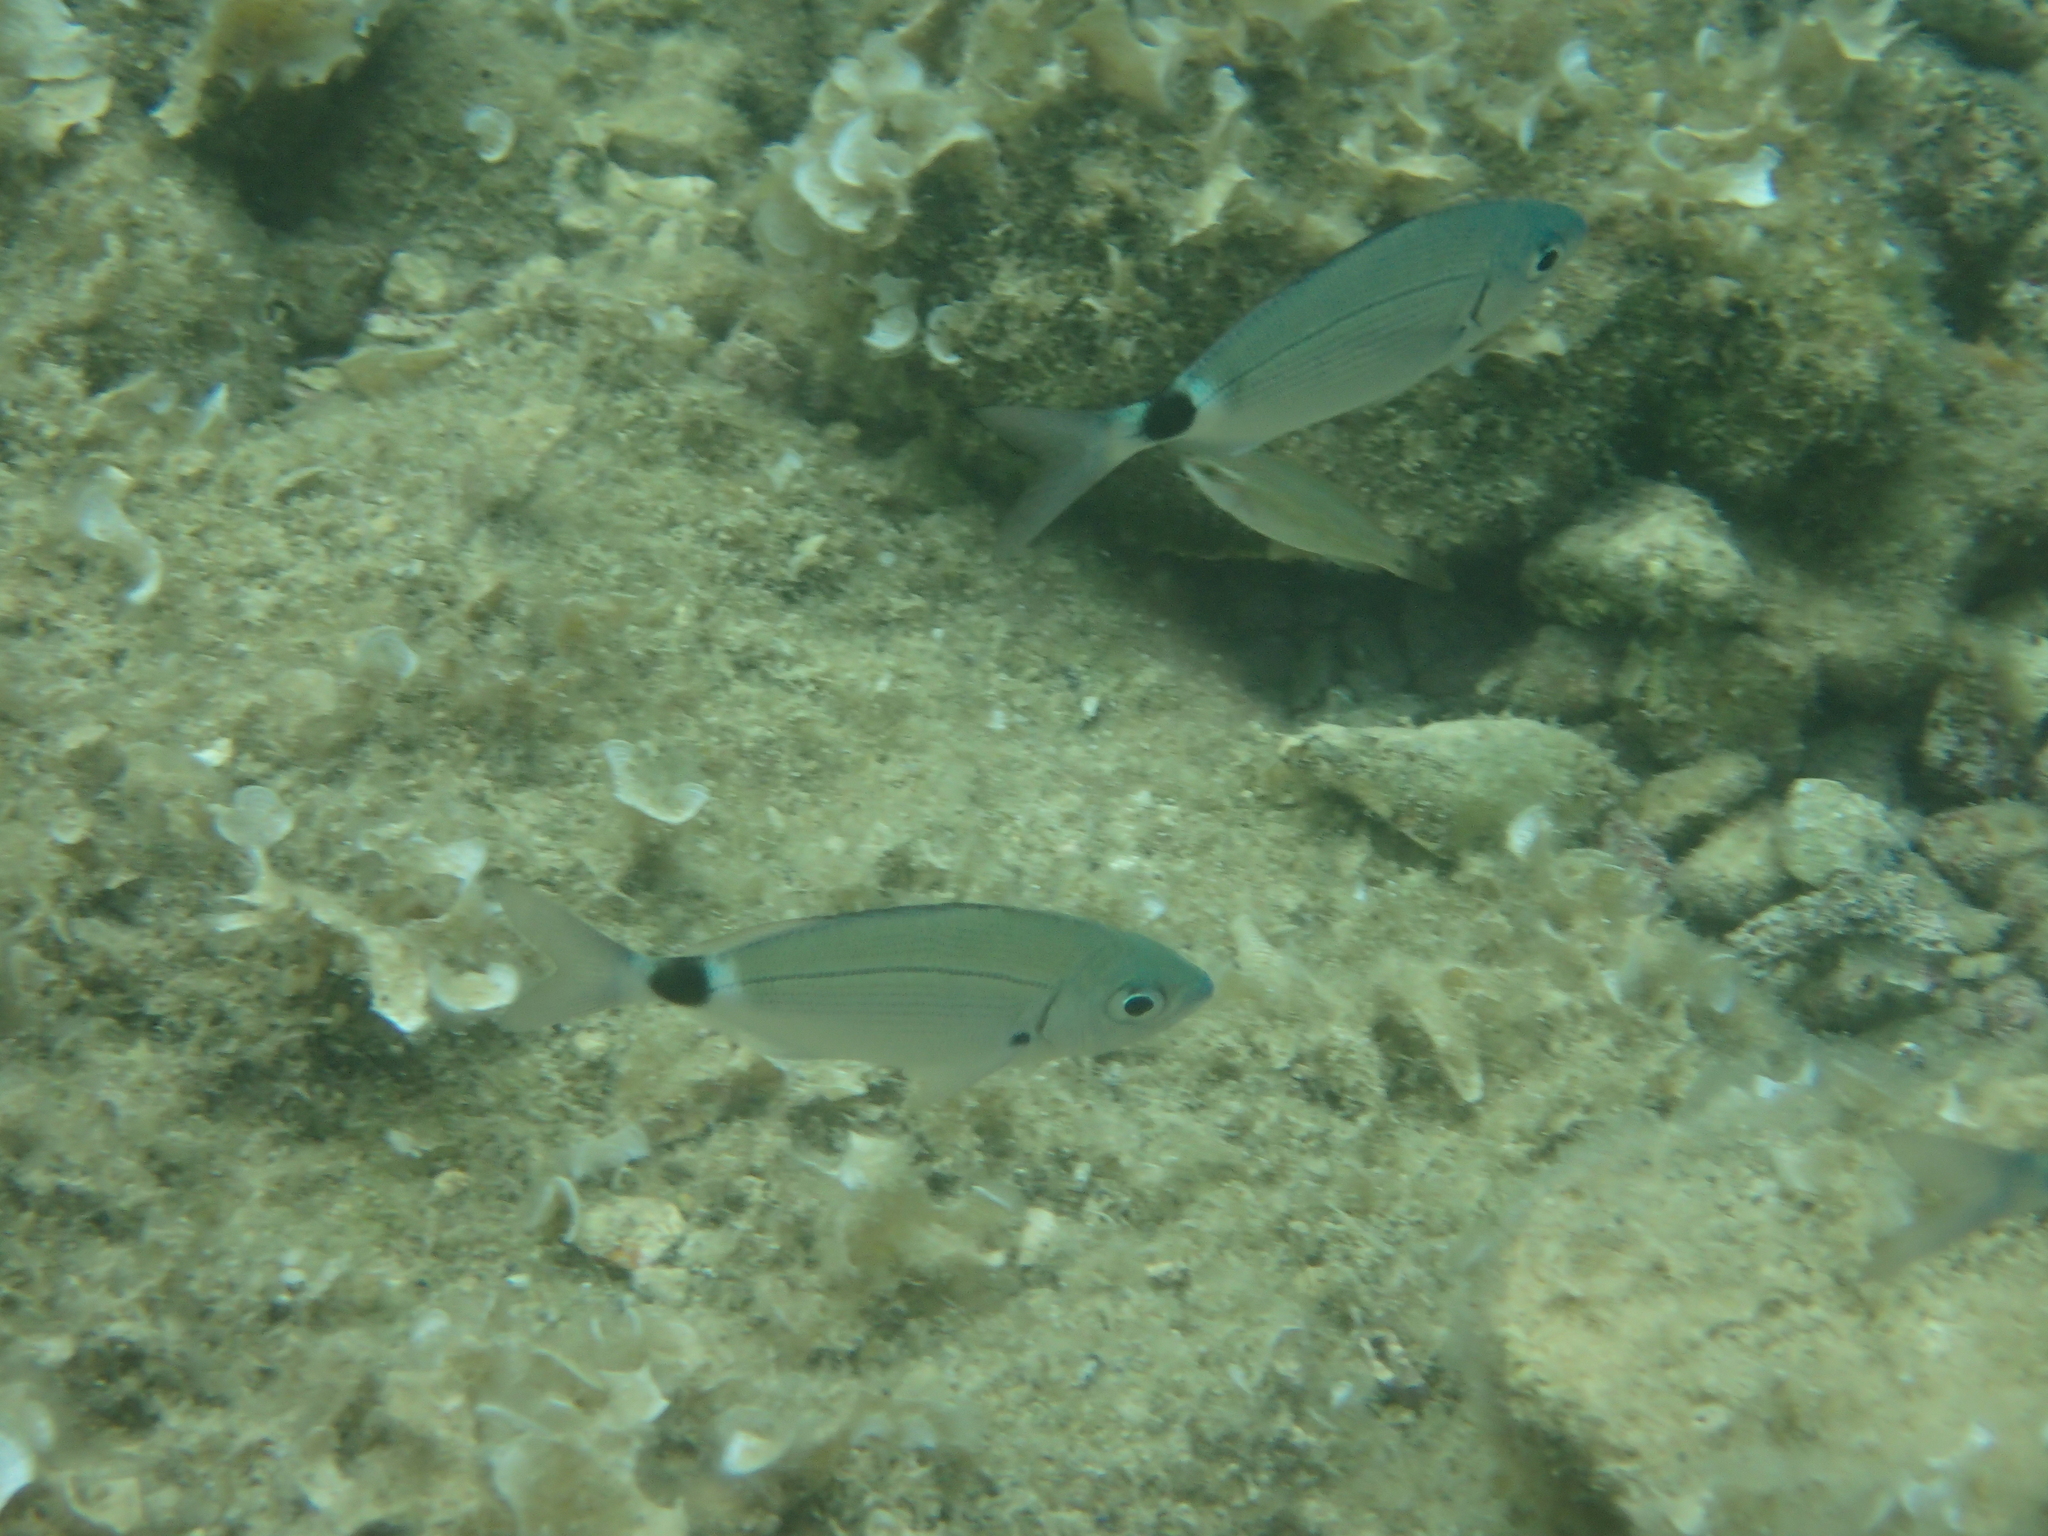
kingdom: Animalia
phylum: Chordata
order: Perciformes
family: Sparidae
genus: Oblada
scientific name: Oblada melanura
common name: Saddled seabream
